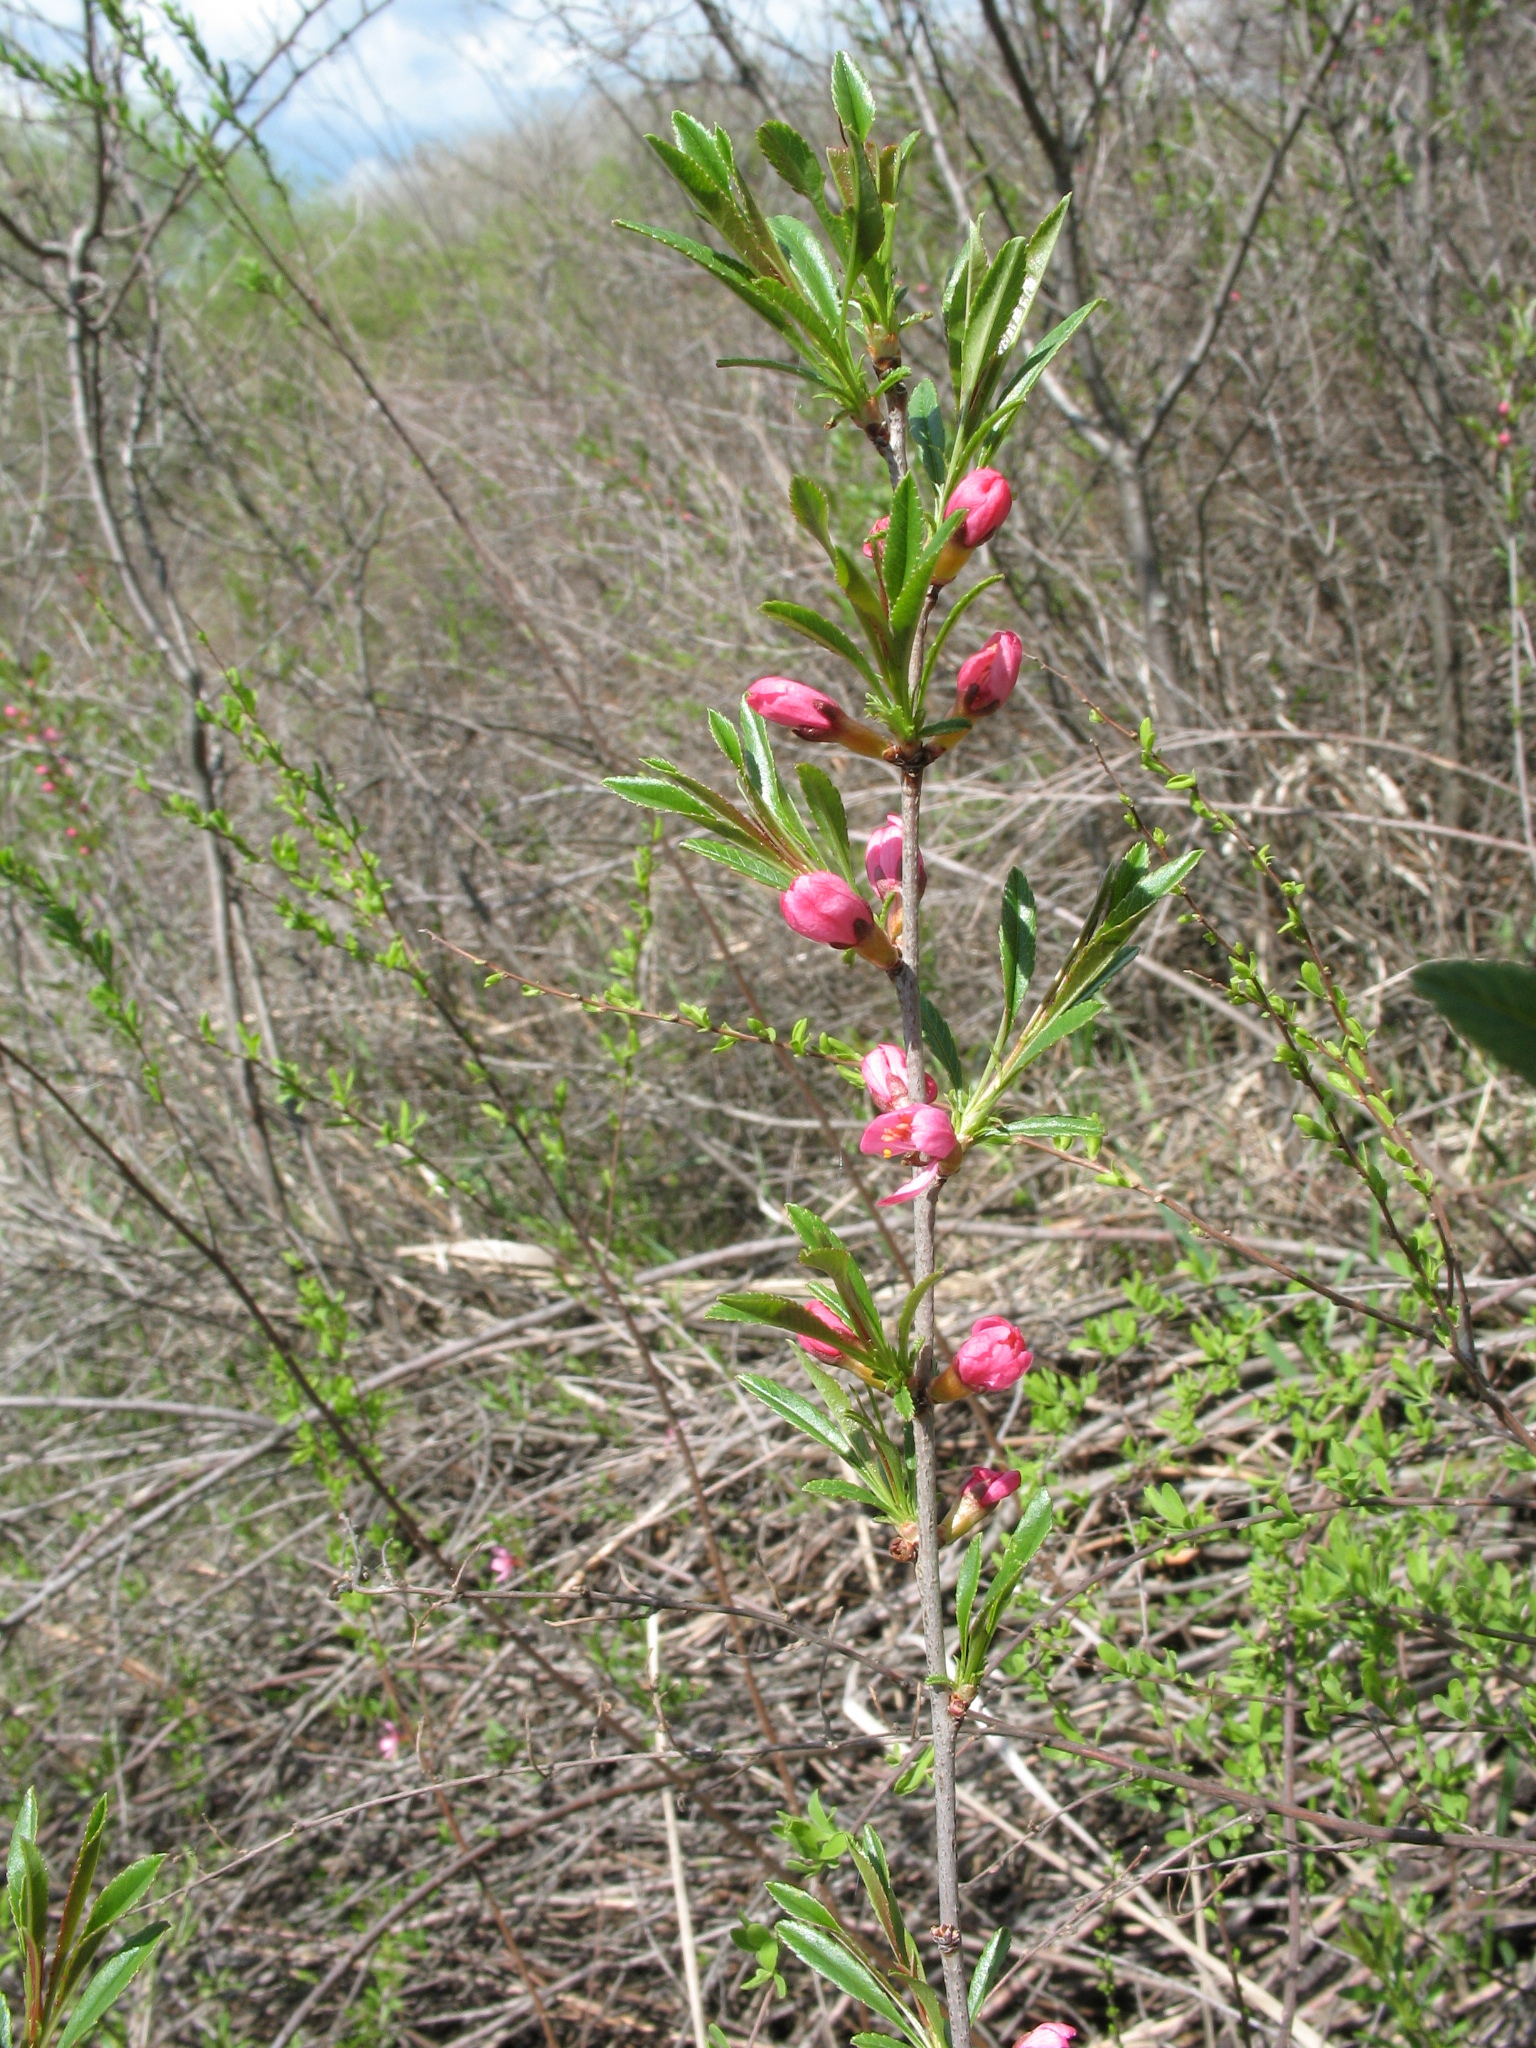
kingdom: Plantae
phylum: Tracheophyta
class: Magnoliopsida
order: Rosales
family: Rosaceae
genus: Prunus
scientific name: Prunus tenella
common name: Dwarf russian almond
